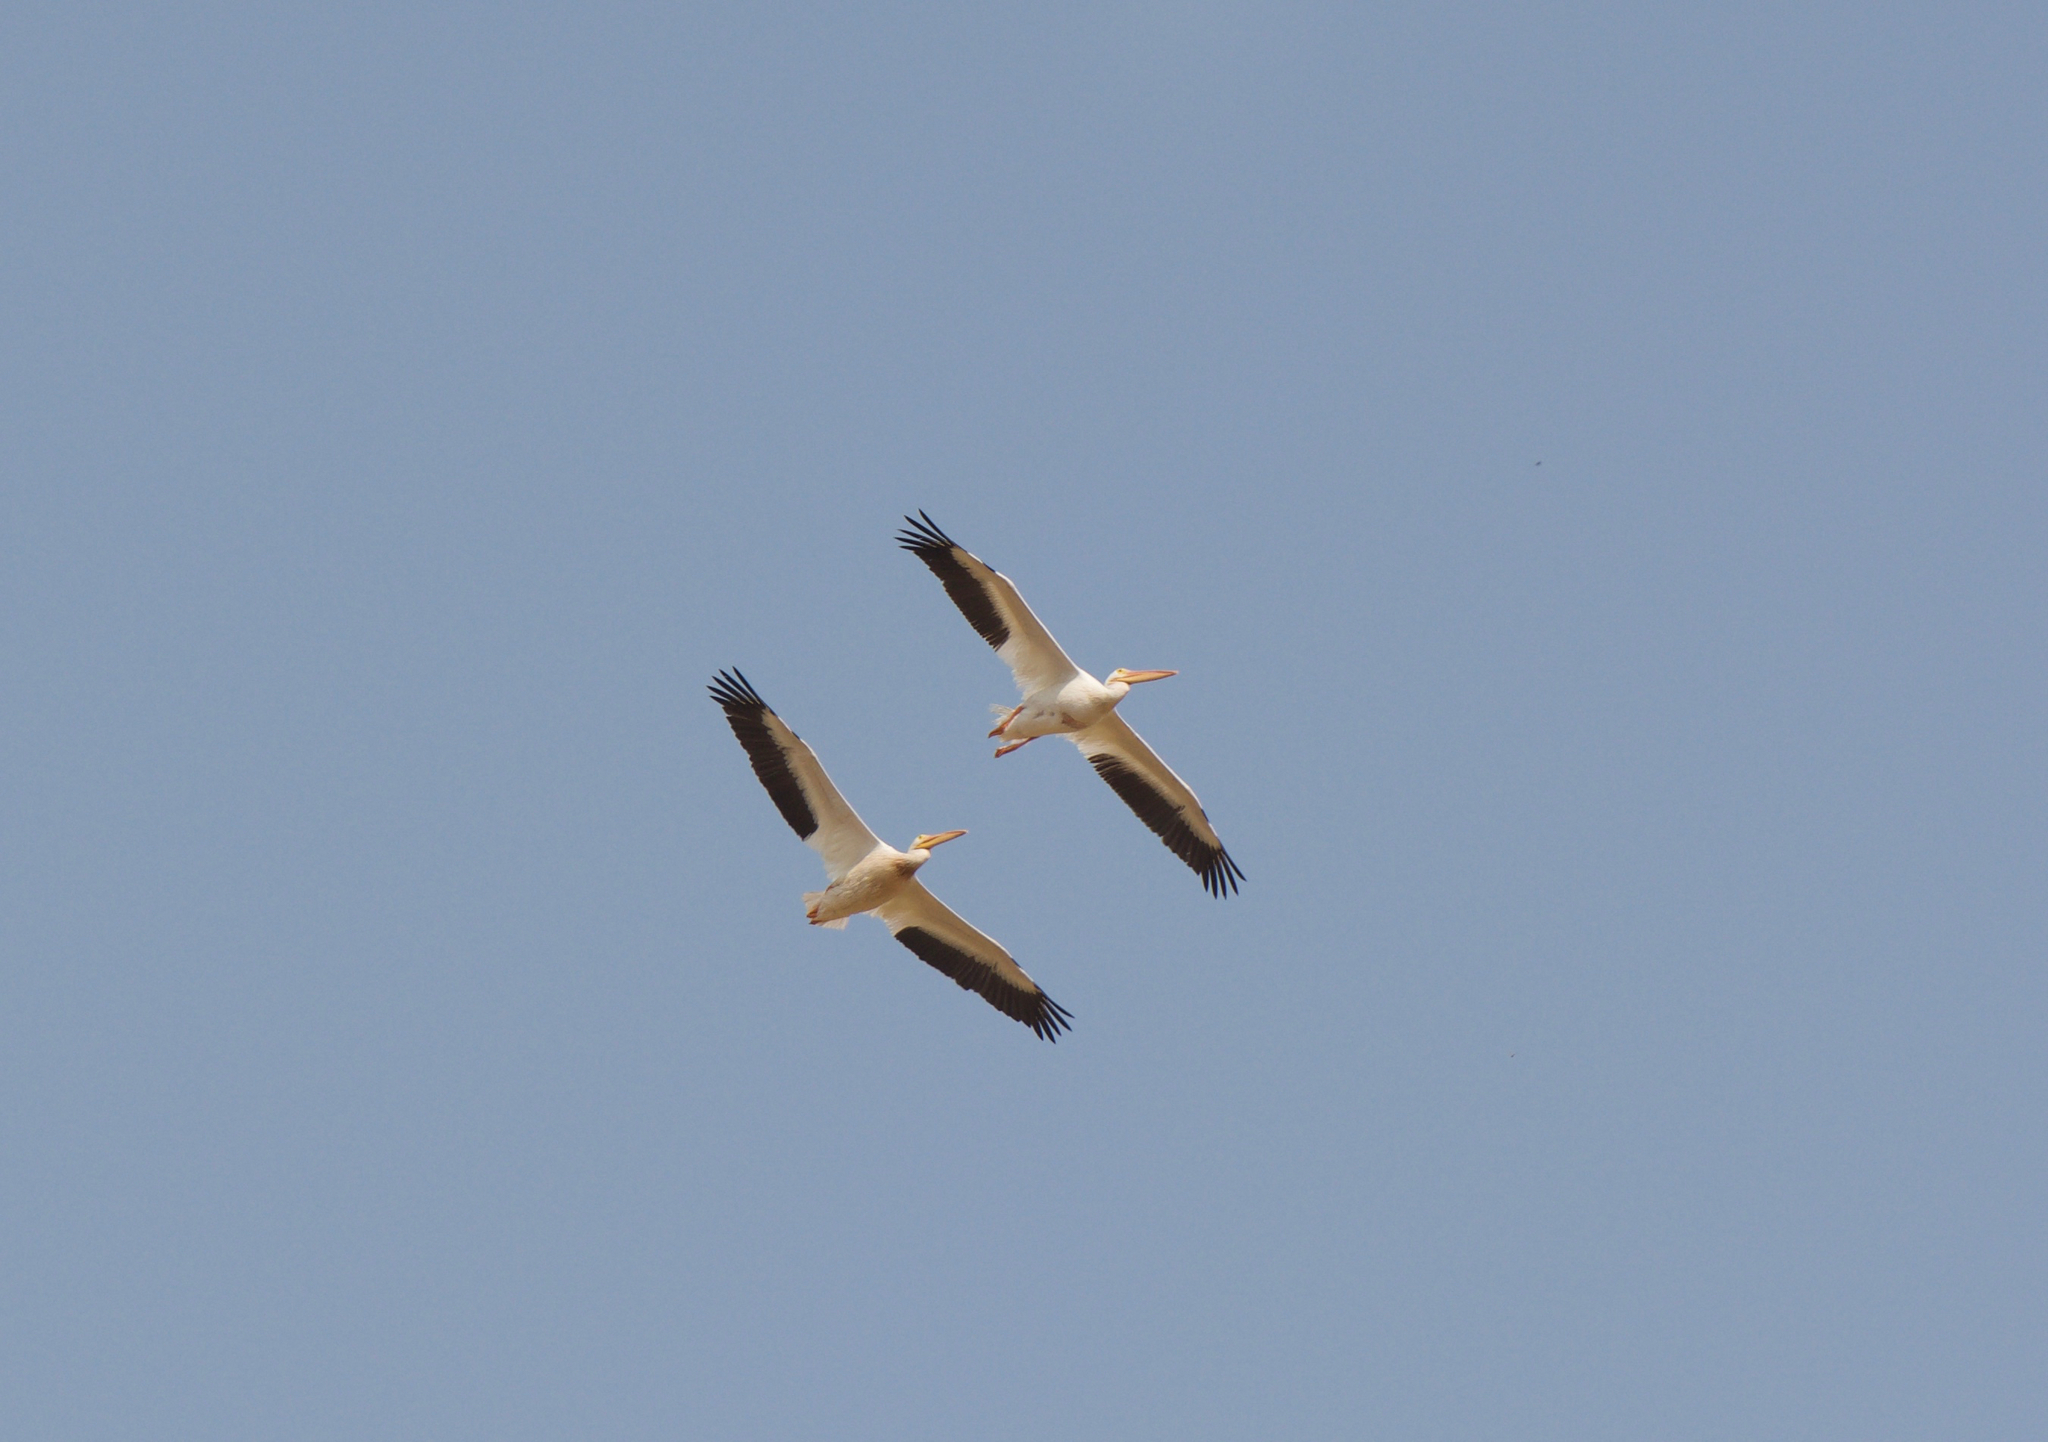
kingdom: Animalia
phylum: Chordata
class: Aves
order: Pelecaniformes
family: Pelecanidae
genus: Pelecanus
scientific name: Pelecanus erythrorhynchos
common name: American white pelican
